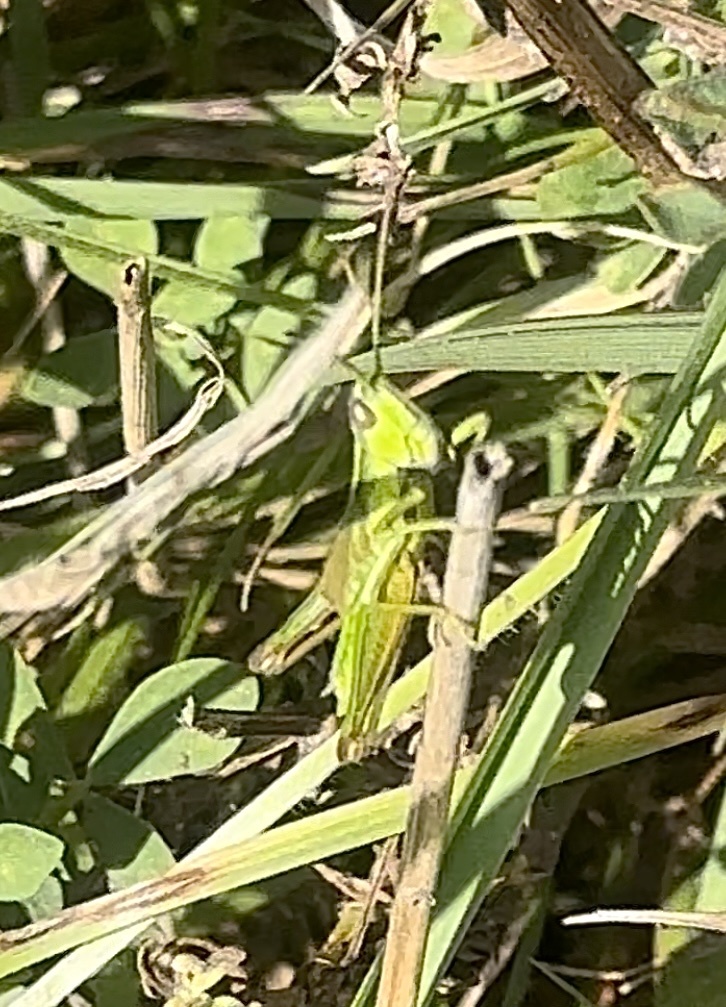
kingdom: Animalia
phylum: Arthropoda
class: Insecta
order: Orthoptera
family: Acrididae
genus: Euthystira
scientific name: Euthystira brachyptera
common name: Small gold grasshopper
